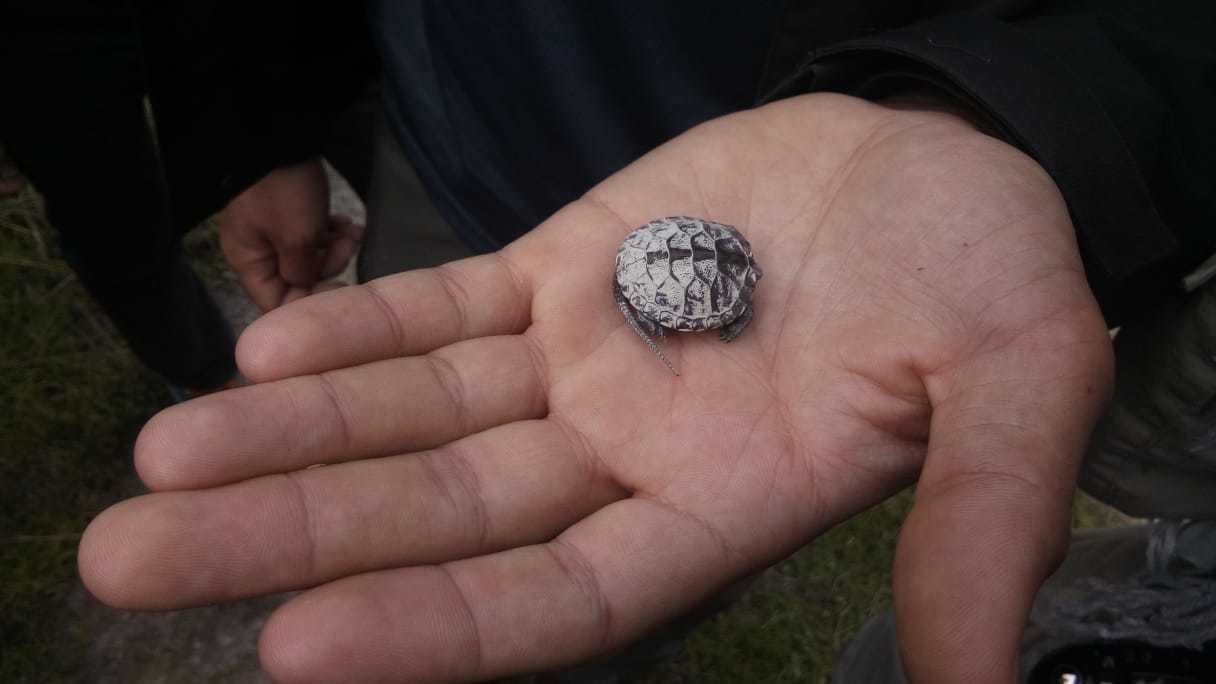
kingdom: Animalia
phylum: Chordata
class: Testudines
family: Emydidae
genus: Emys
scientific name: Emys orbicularis
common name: European pond turtle
